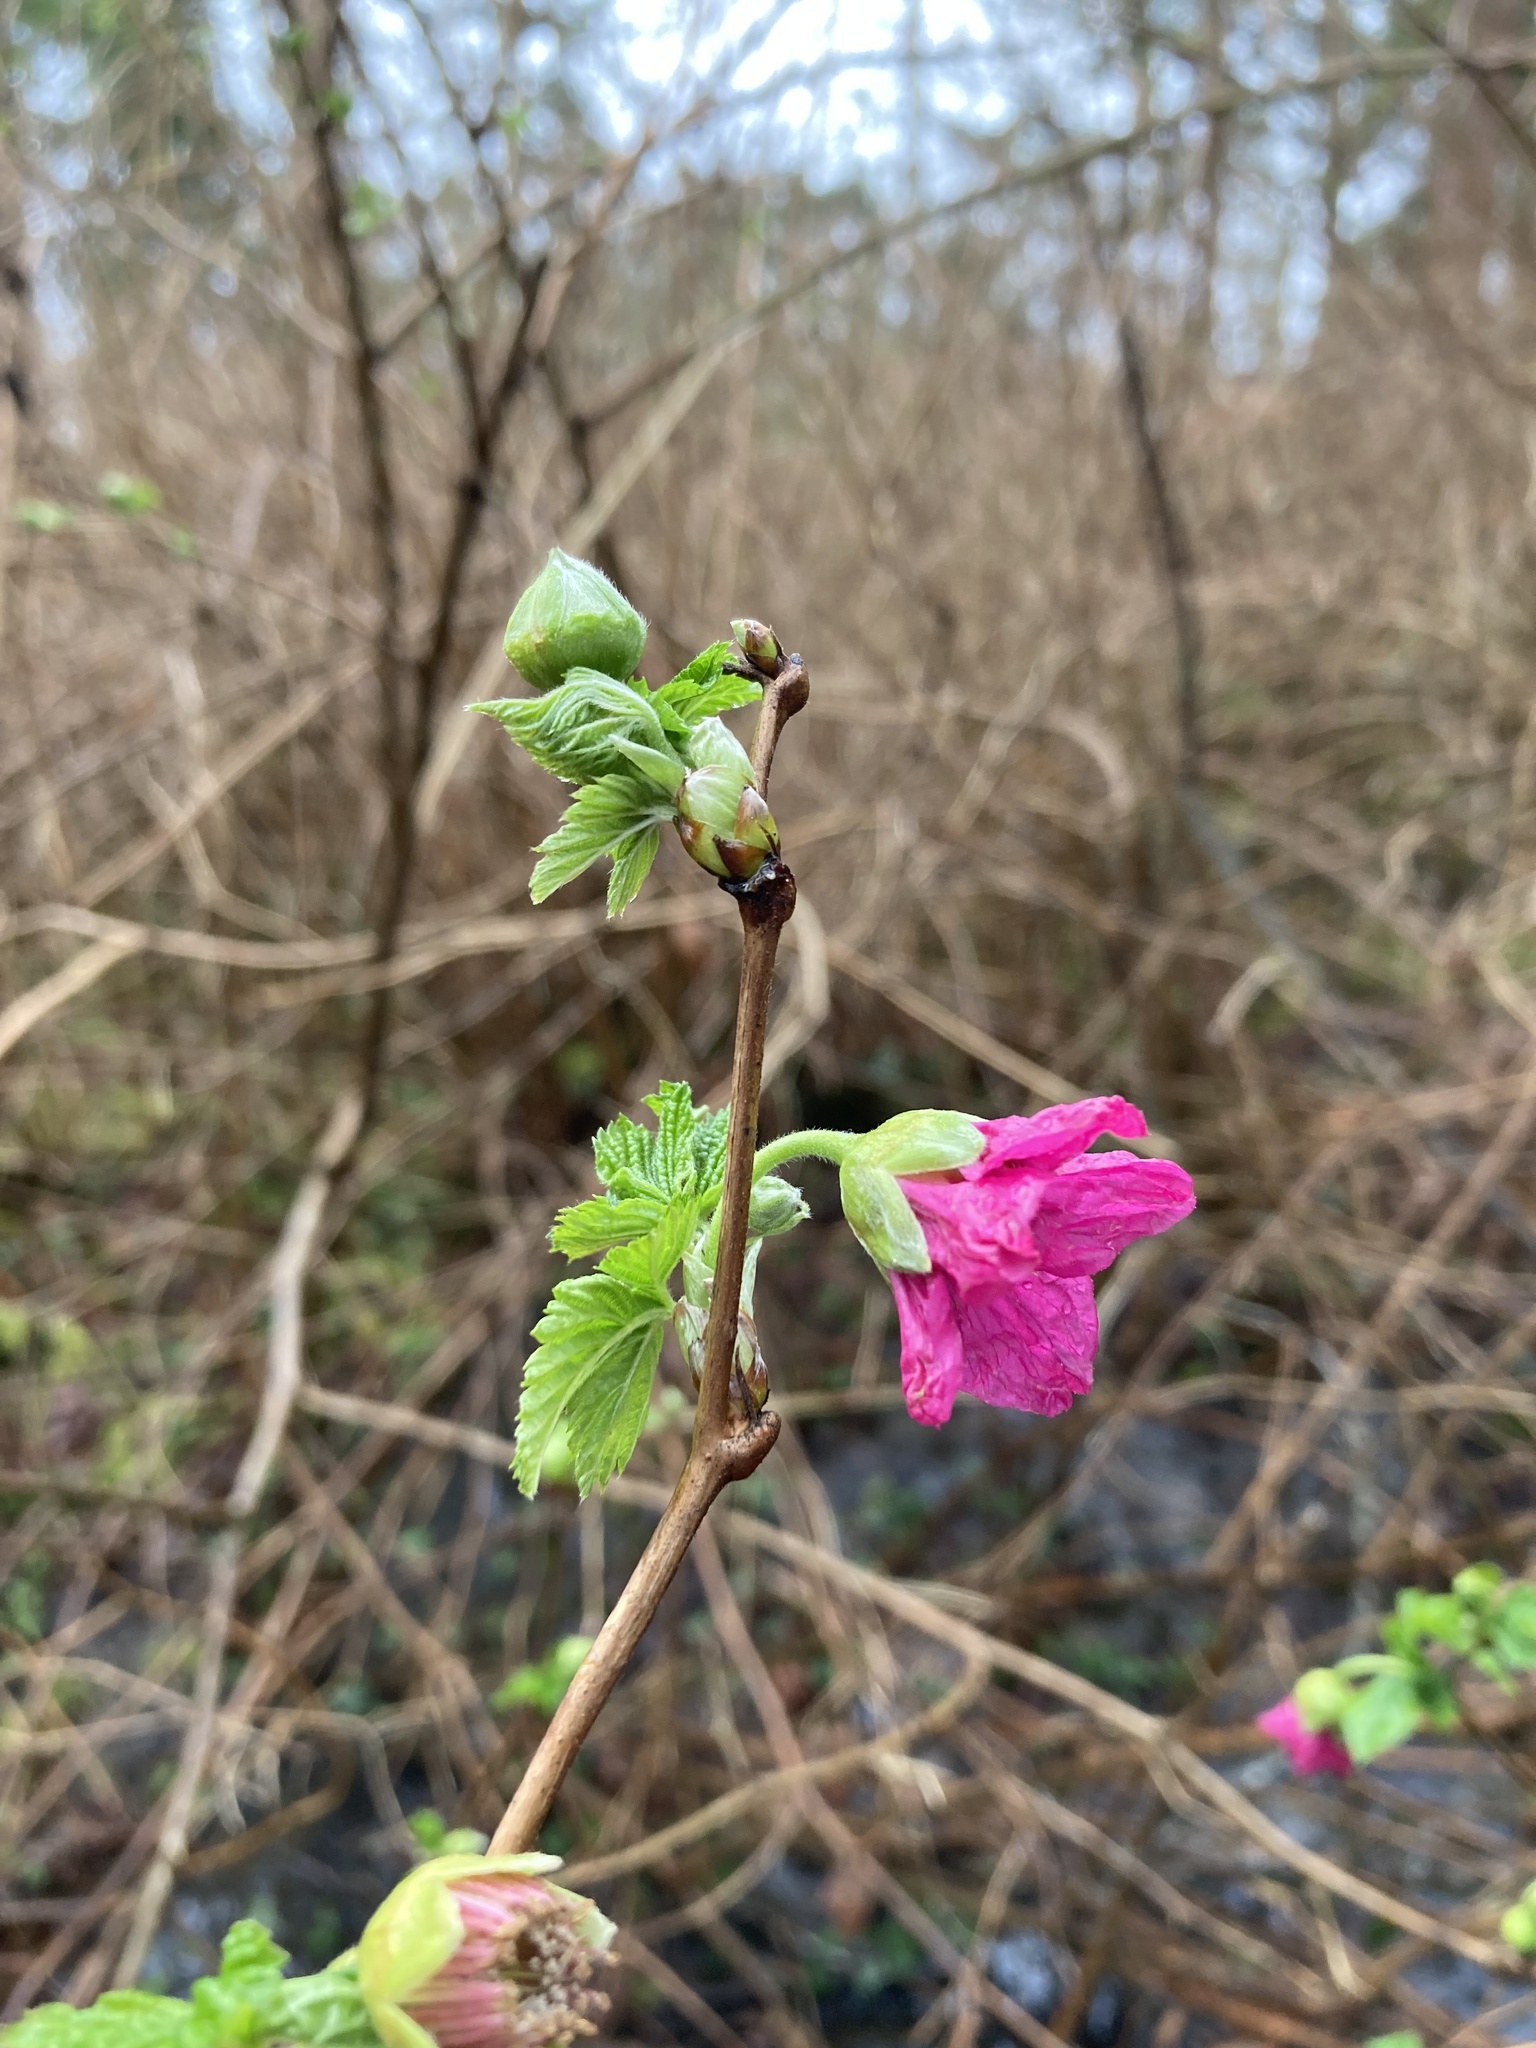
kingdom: Plantae
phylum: Tracheophyta
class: Magnoliopsida
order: Rosales
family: Rosaceae
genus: Rubus
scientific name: Rubus spectabilis
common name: Salmonberry
